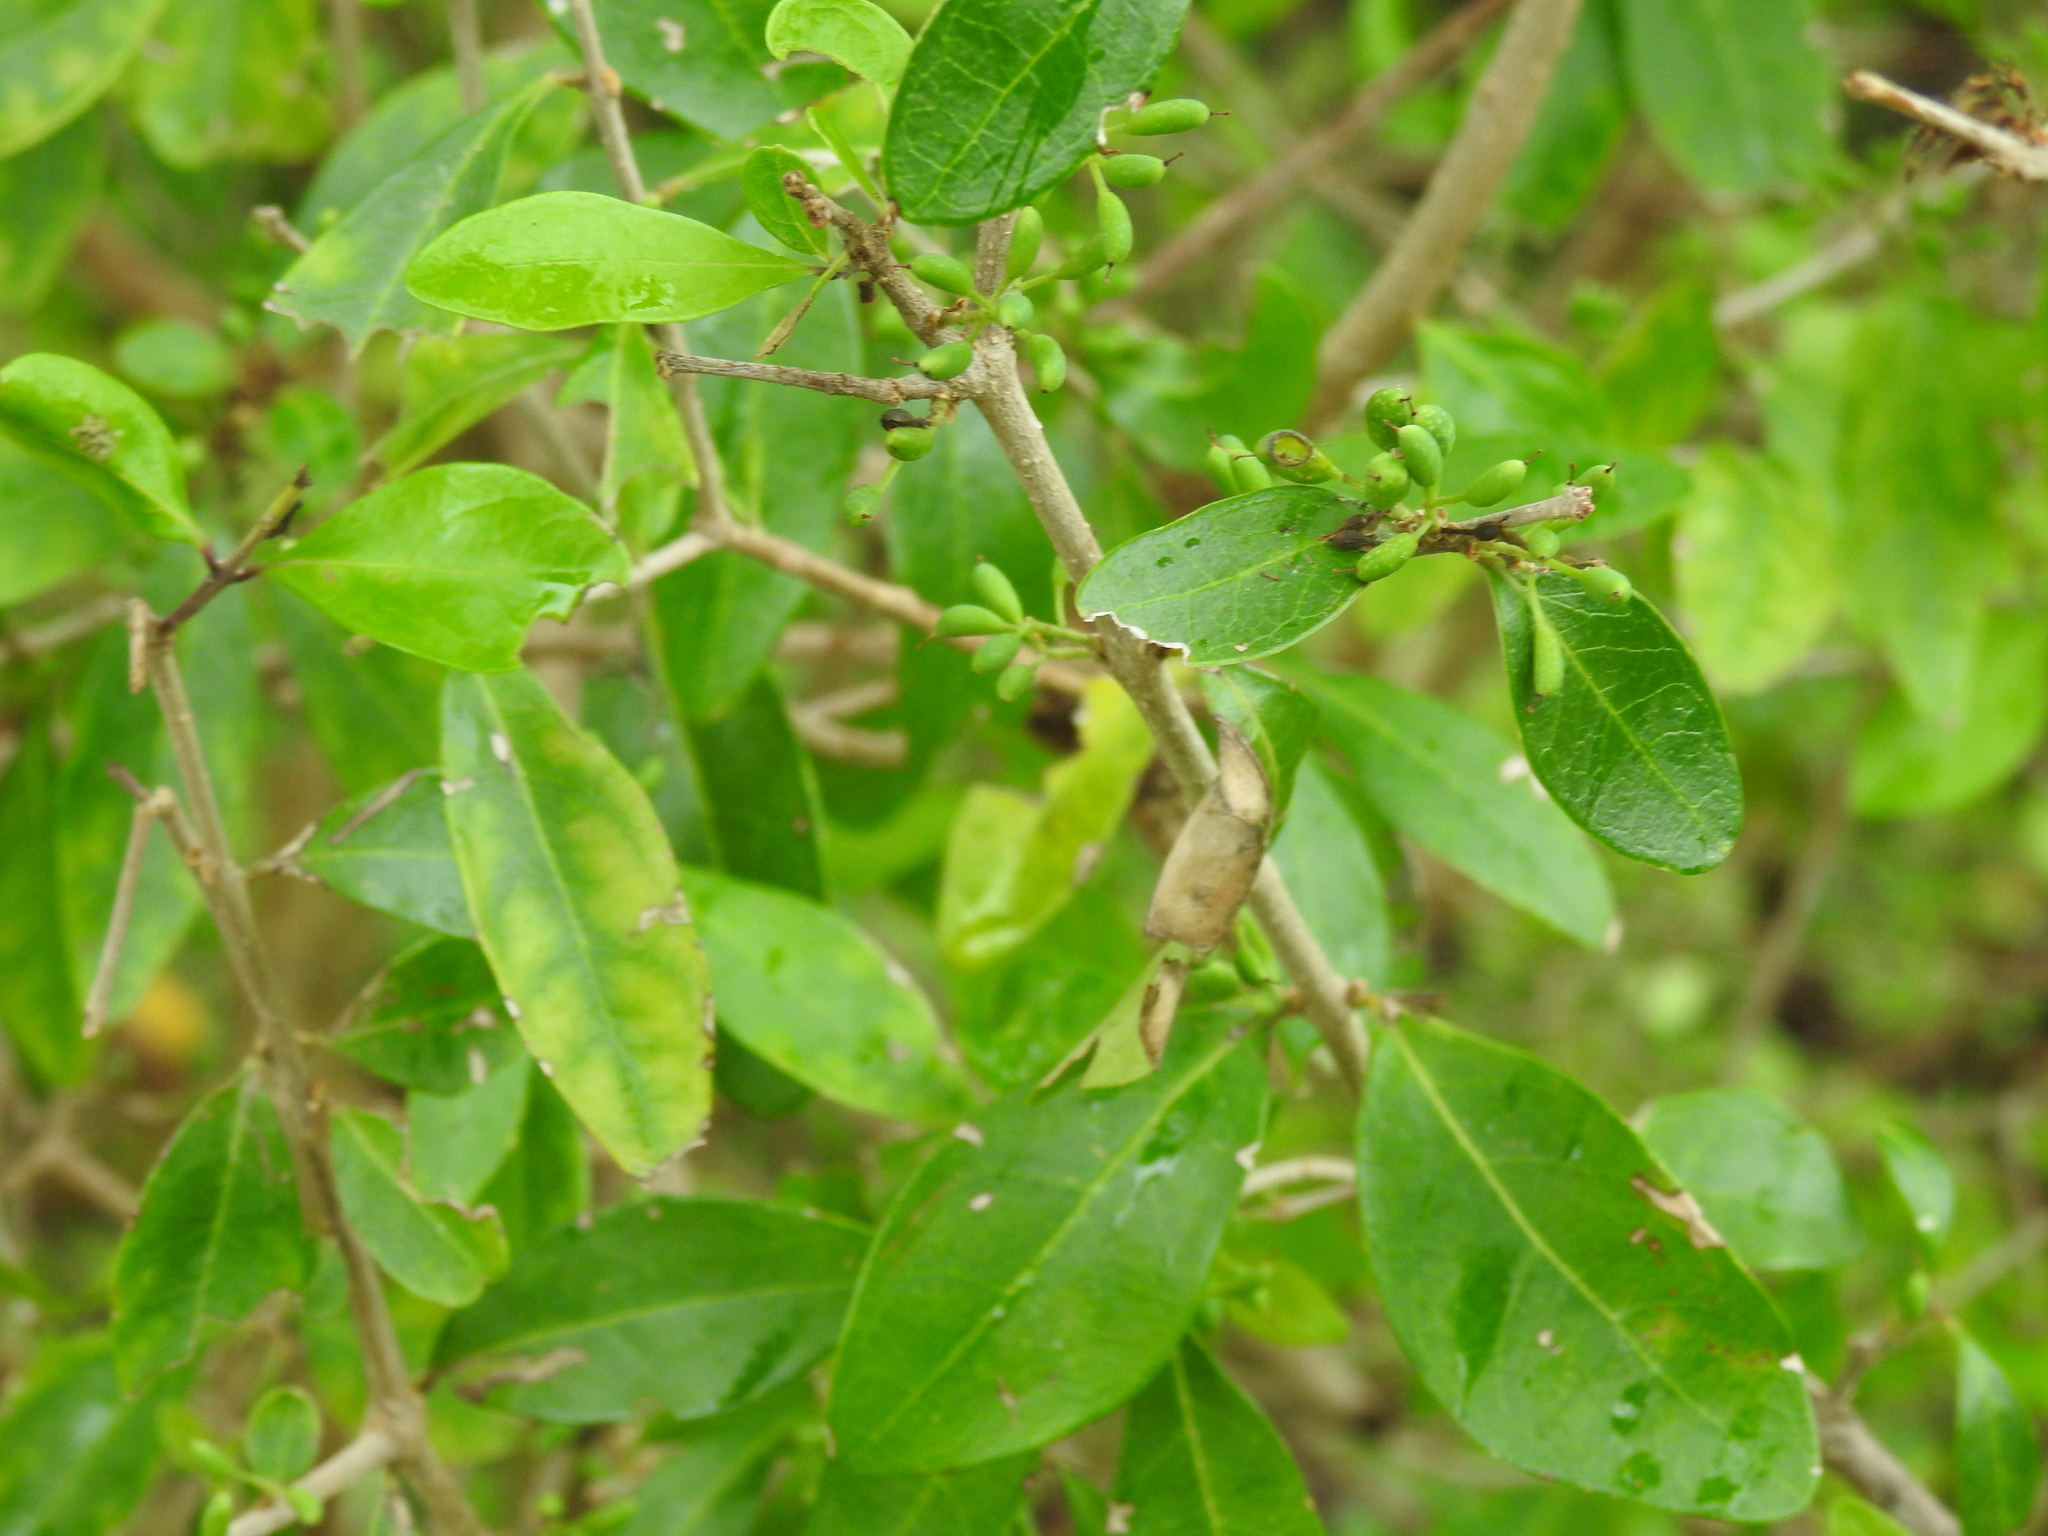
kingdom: Plantae
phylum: Tracheophyta
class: Magnoliopsida
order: Lamiales
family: Oleaceae
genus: Forestiera
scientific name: Forestiera segregata
